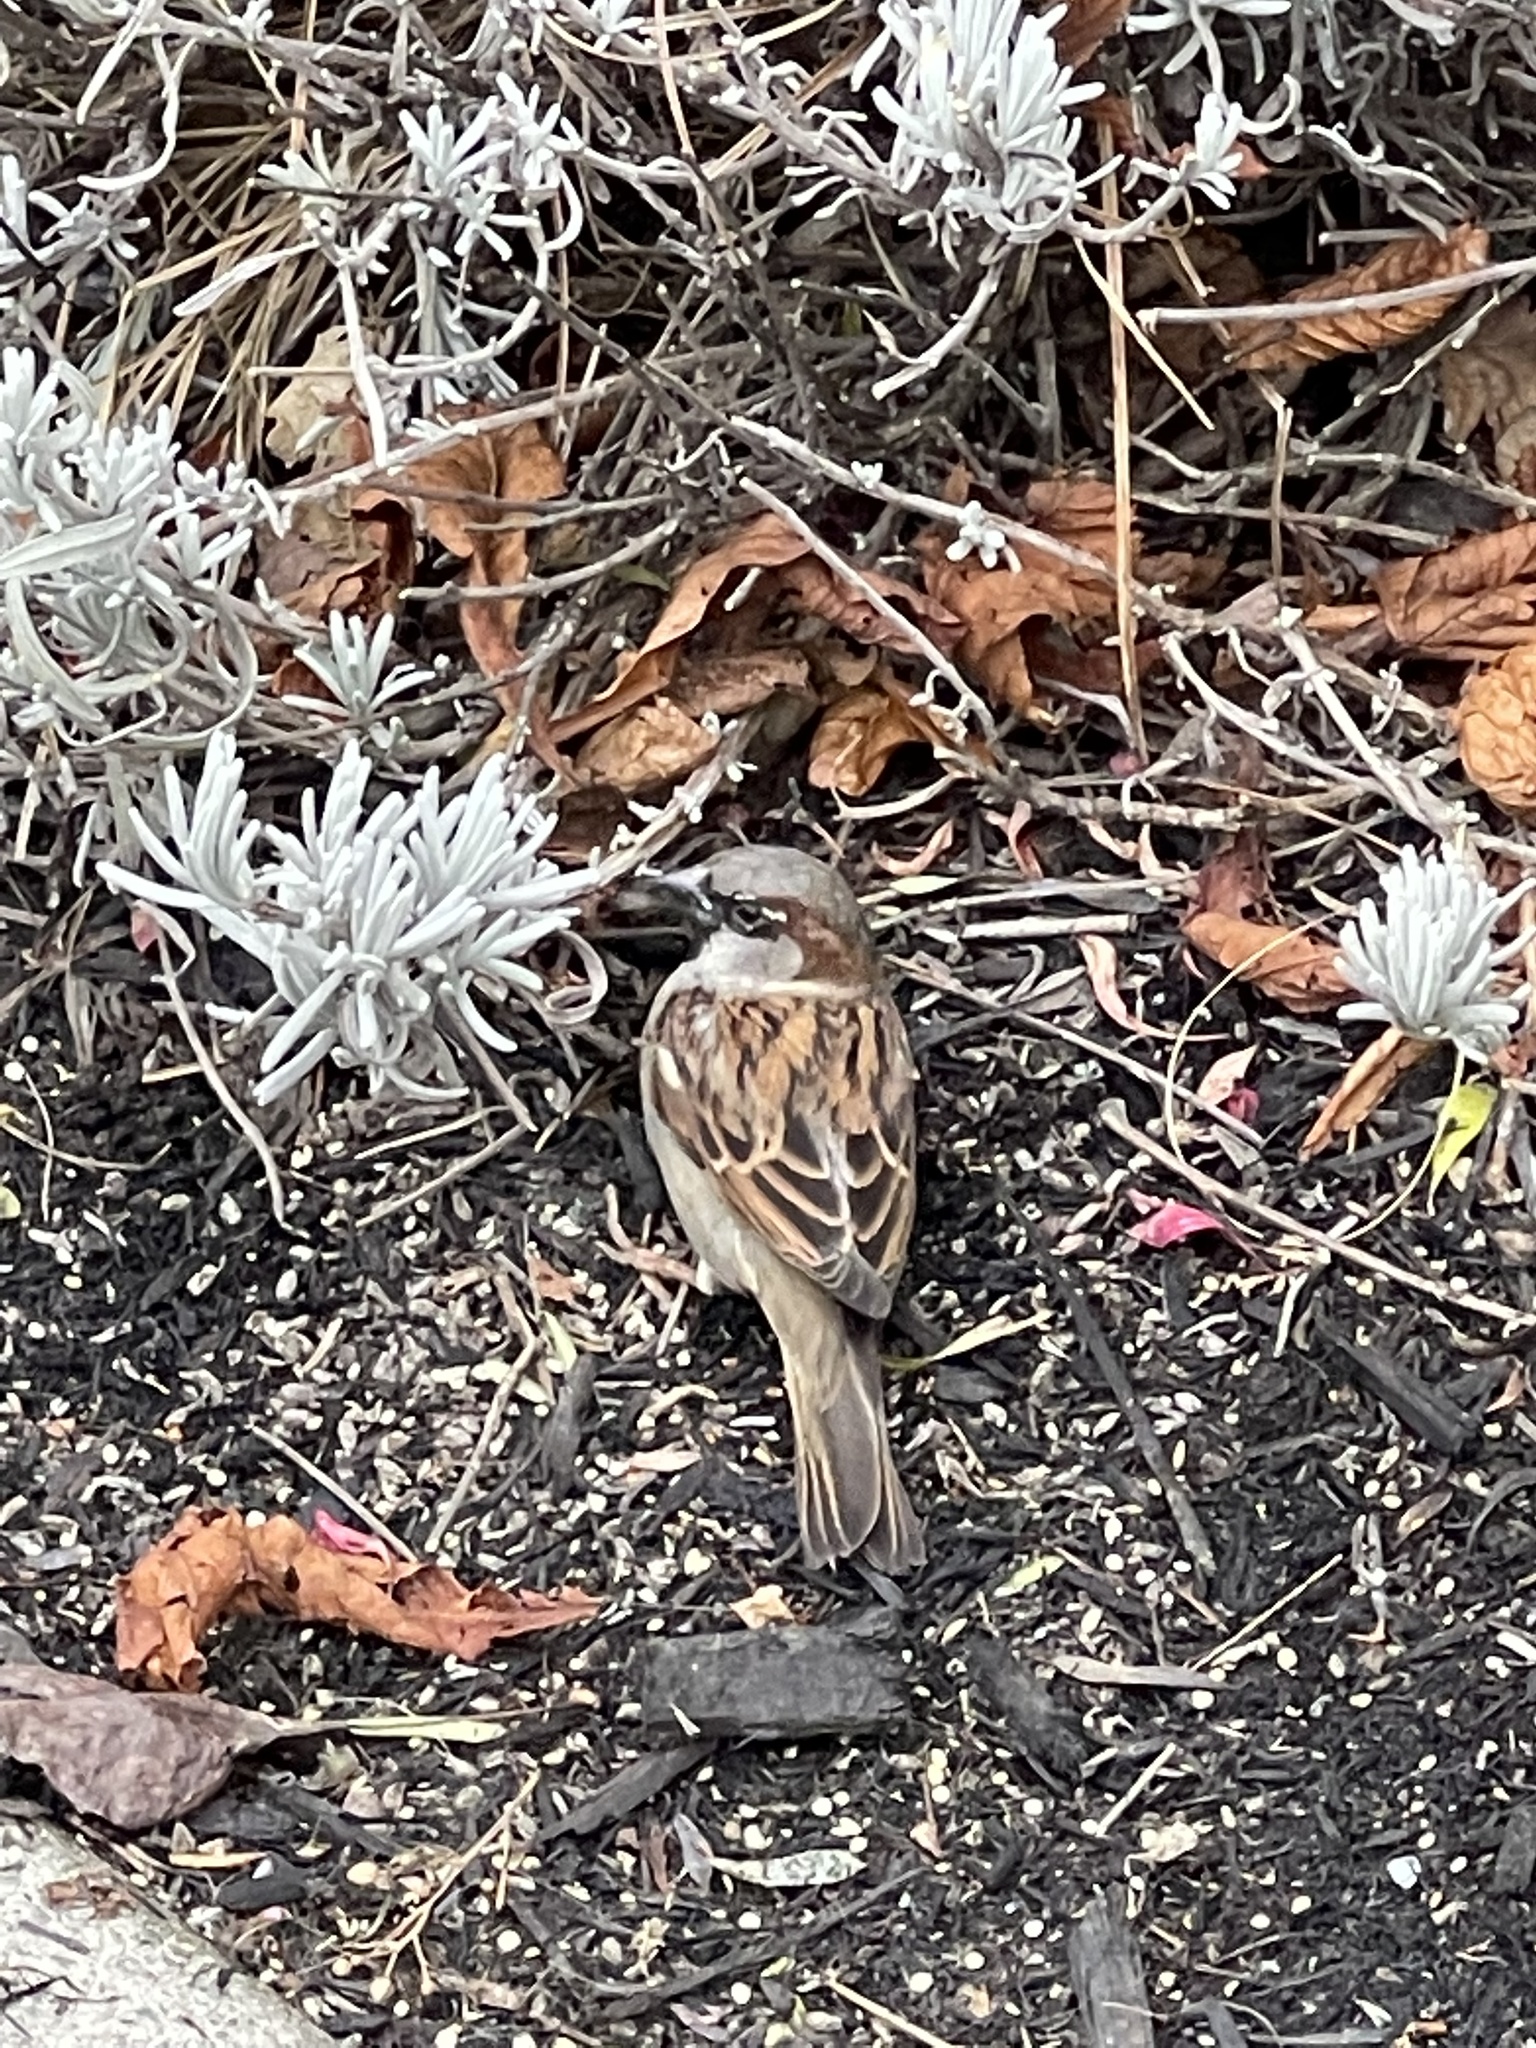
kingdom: Animalia
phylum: Chordata
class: Aves
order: Passeriformes
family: Passeridae
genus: Passer
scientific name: Passer domesticus
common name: House sparrow
